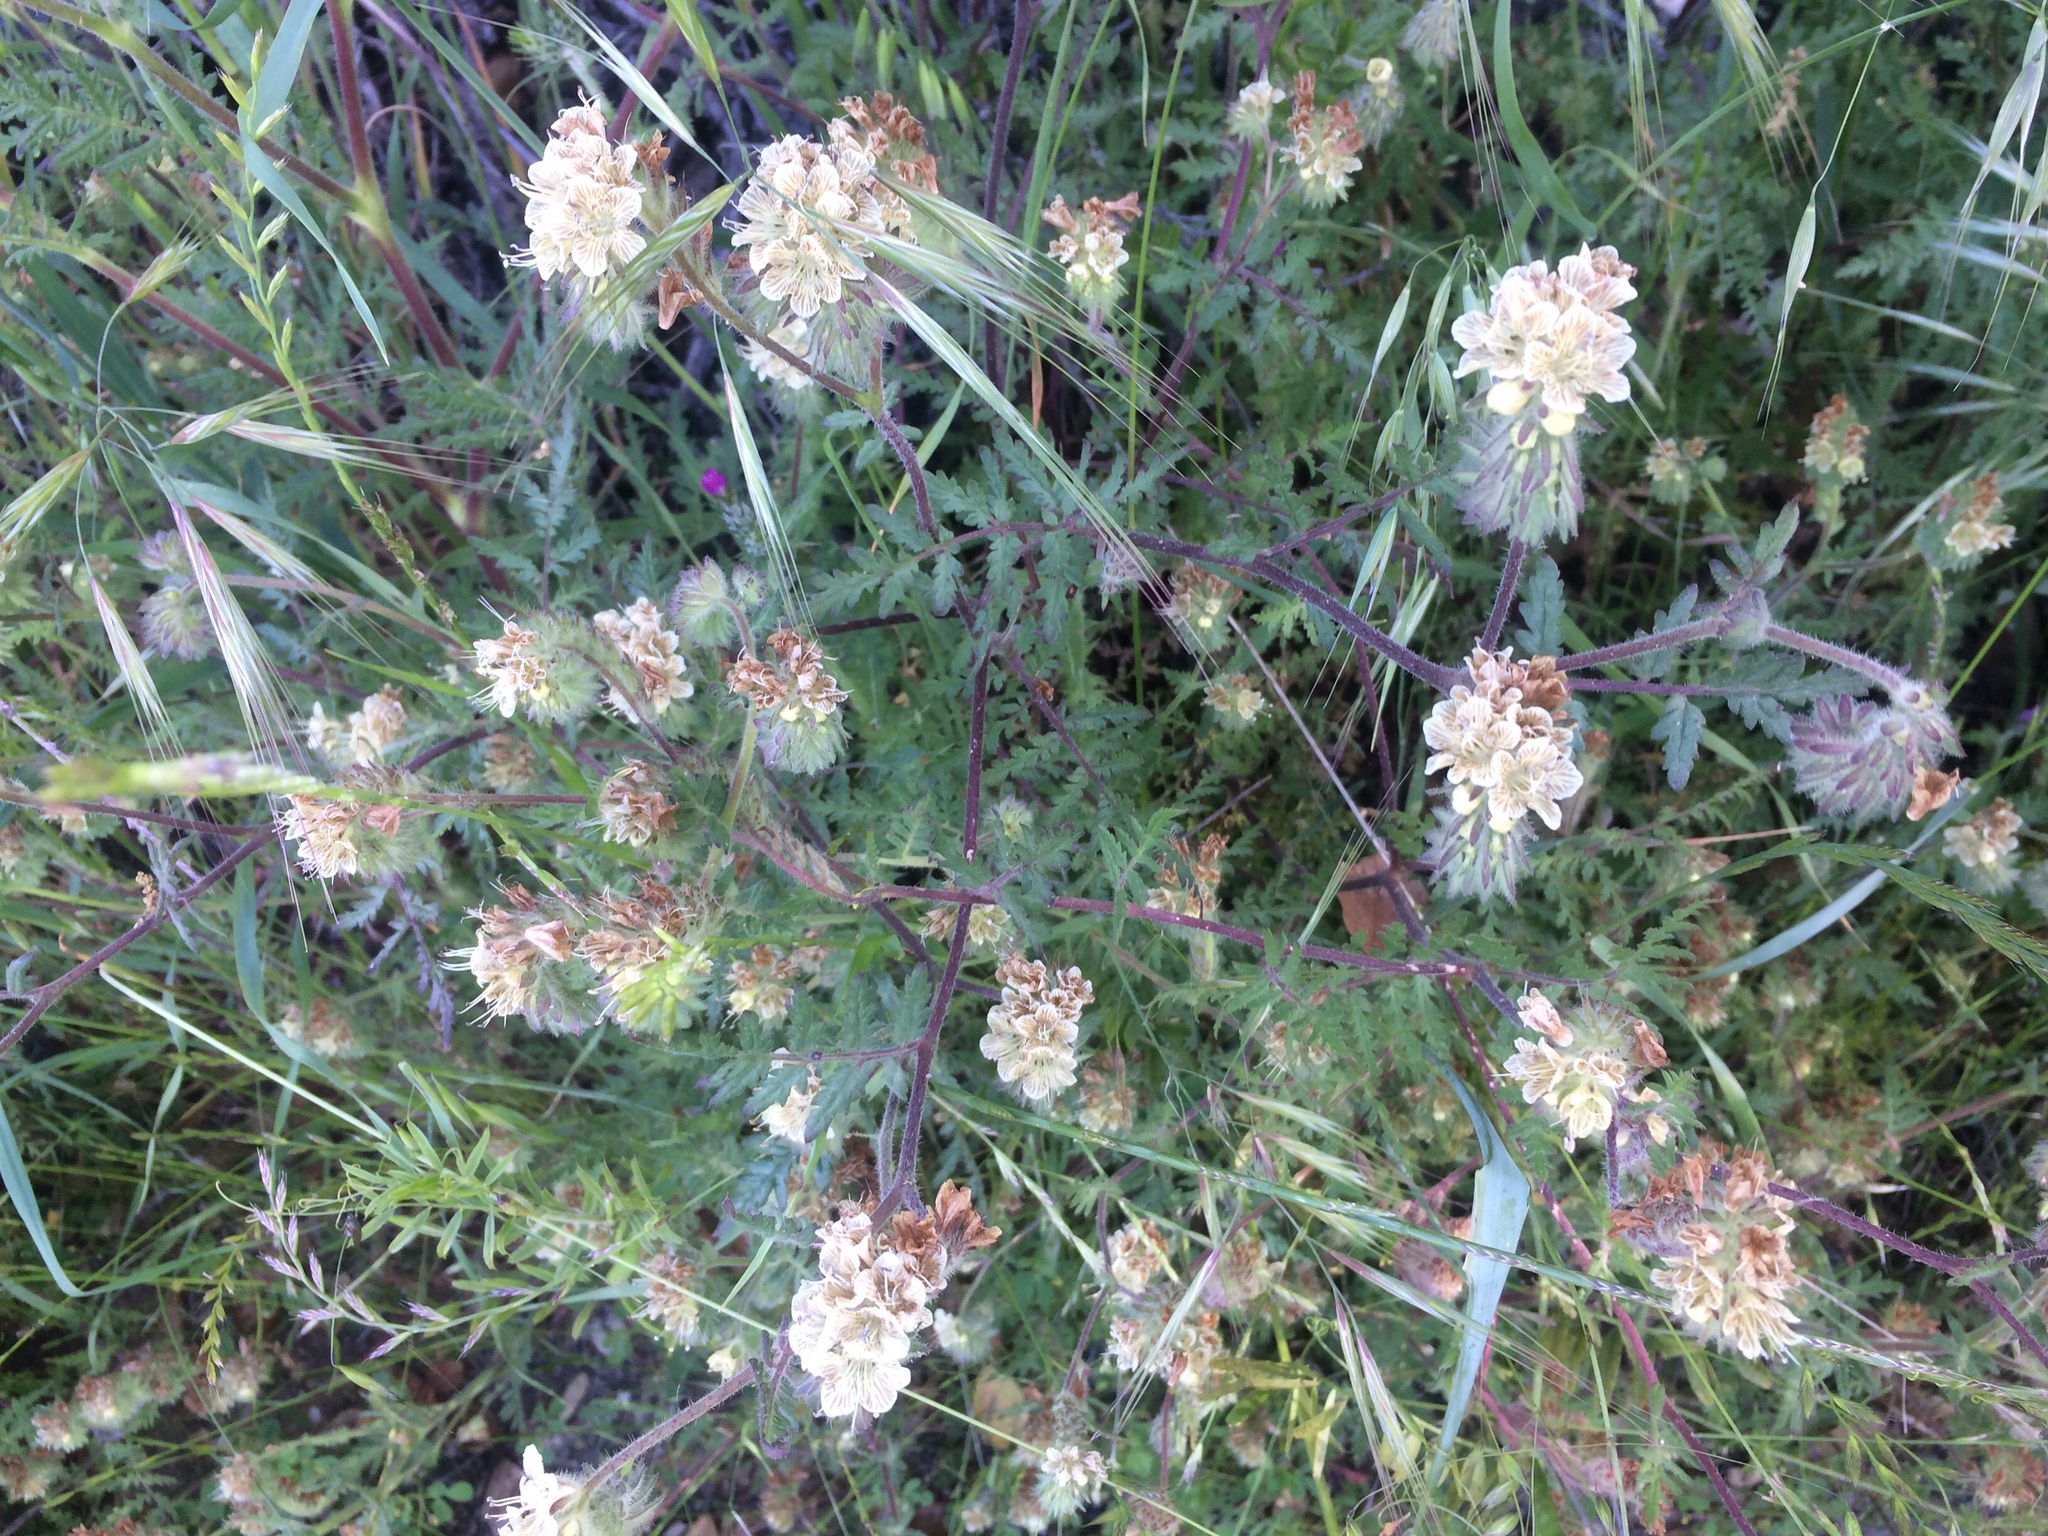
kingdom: Plantae
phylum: Tracheophyta
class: Magnoliopsida
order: Boraginales
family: Hydrophyllaceae
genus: Phacelia
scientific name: Phacelia distans
